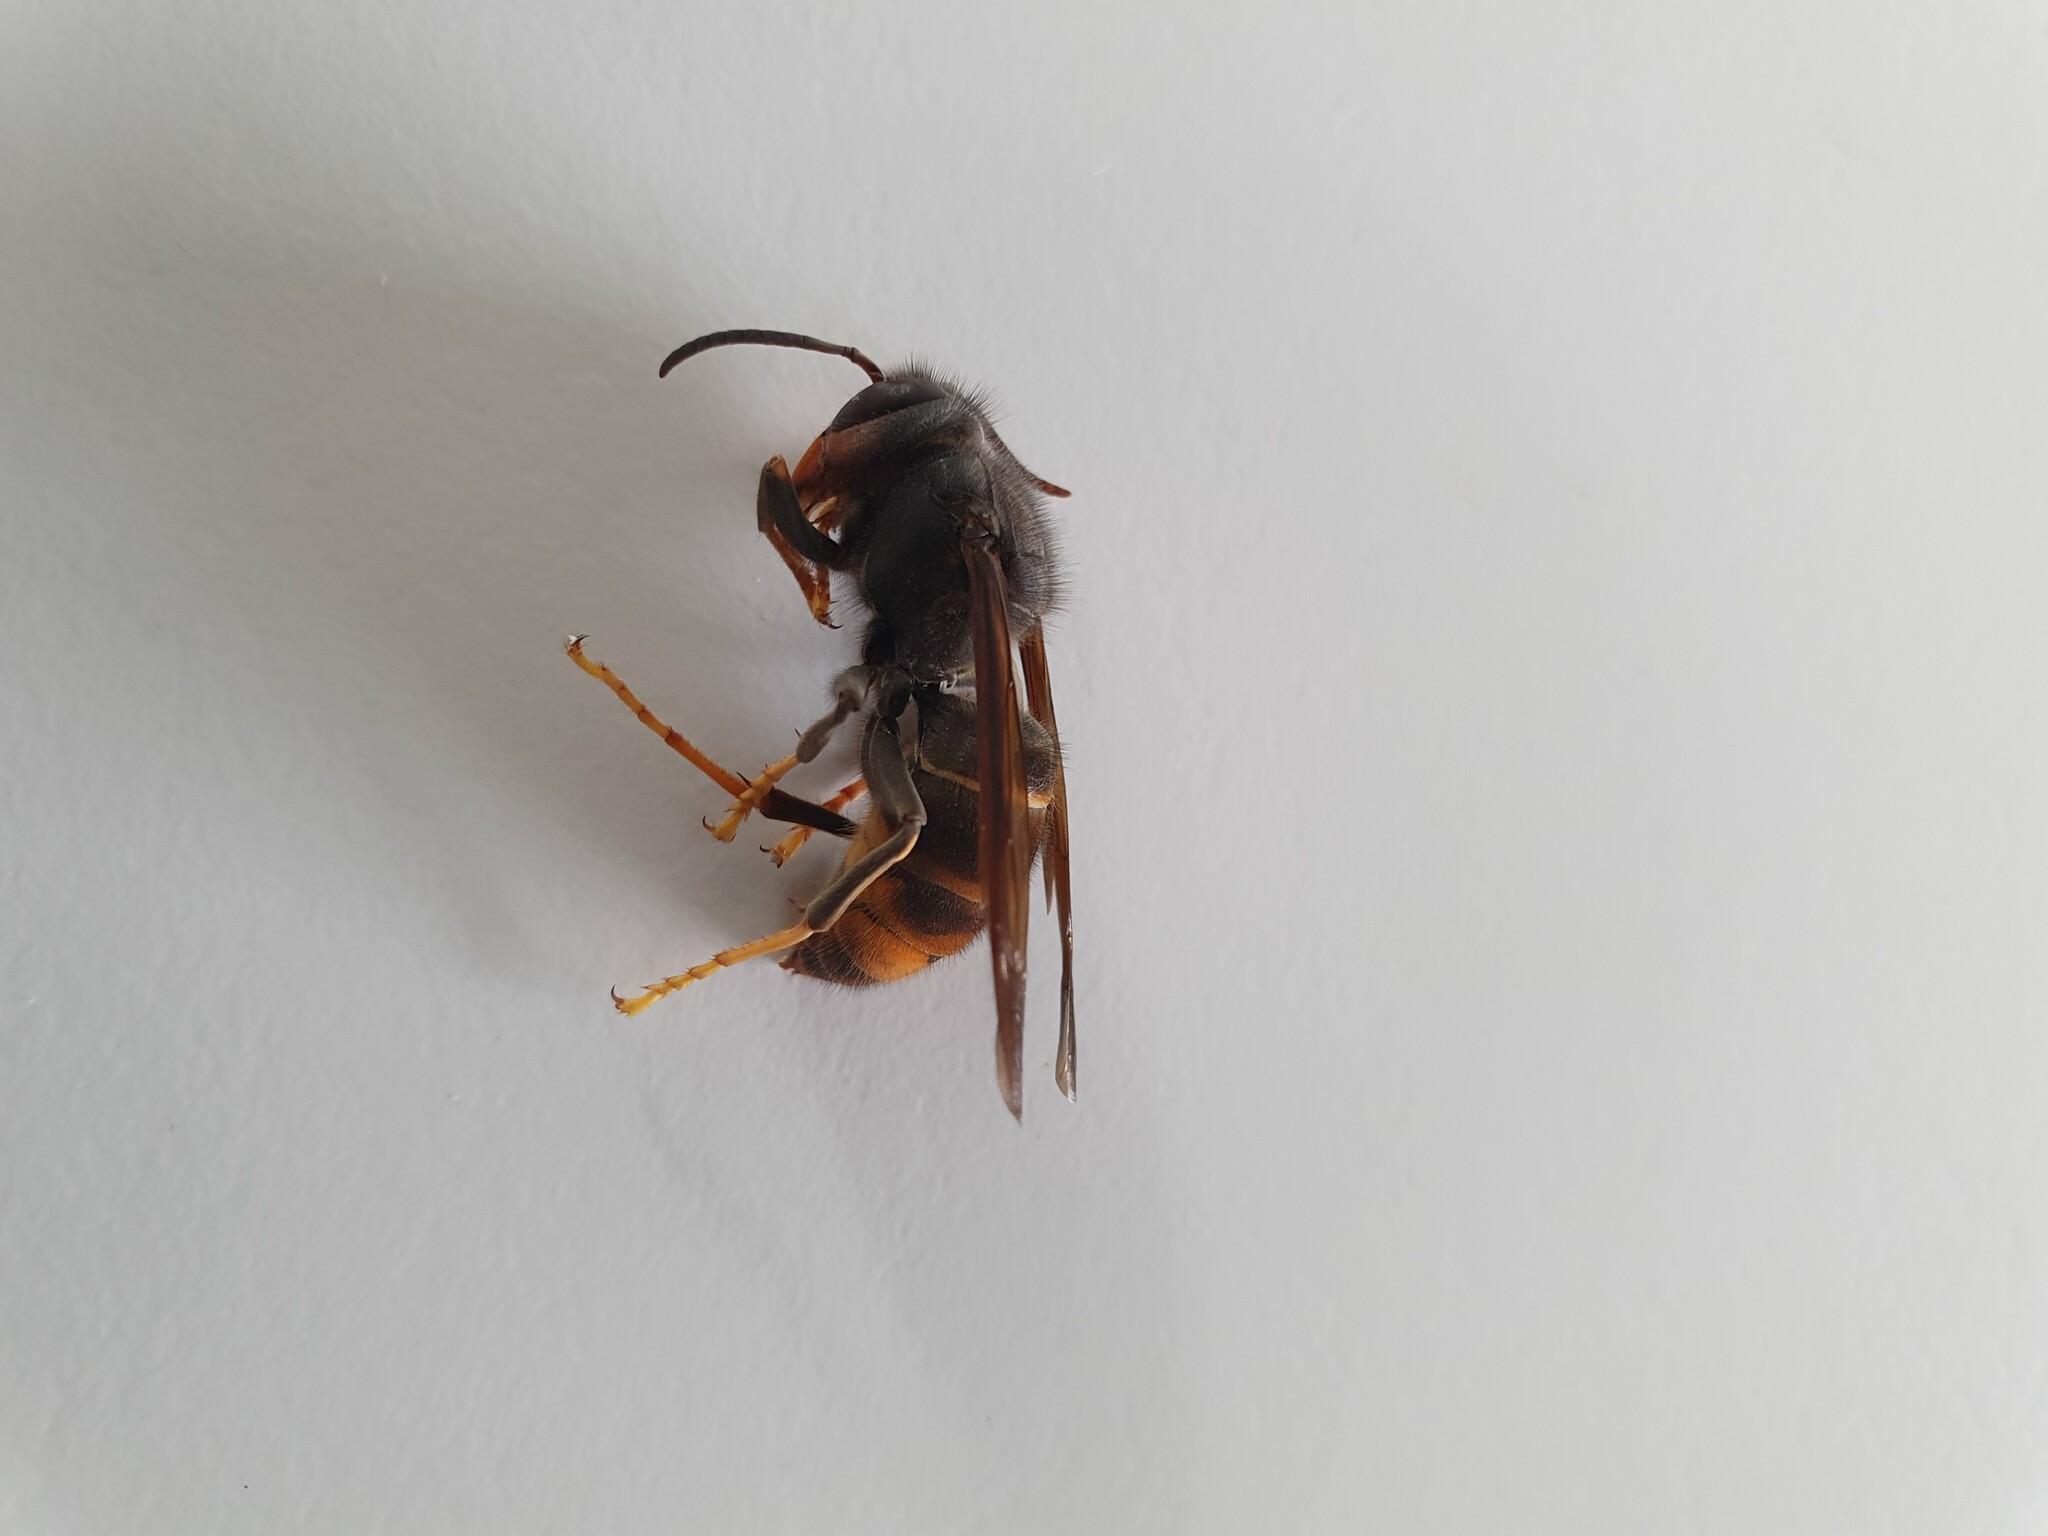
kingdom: Animalia
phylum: Arthropoda
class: Insecta
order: Hymenoptera
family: Vespidae
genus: Vespa
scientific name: Vespa velutina
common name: Asian hornet
